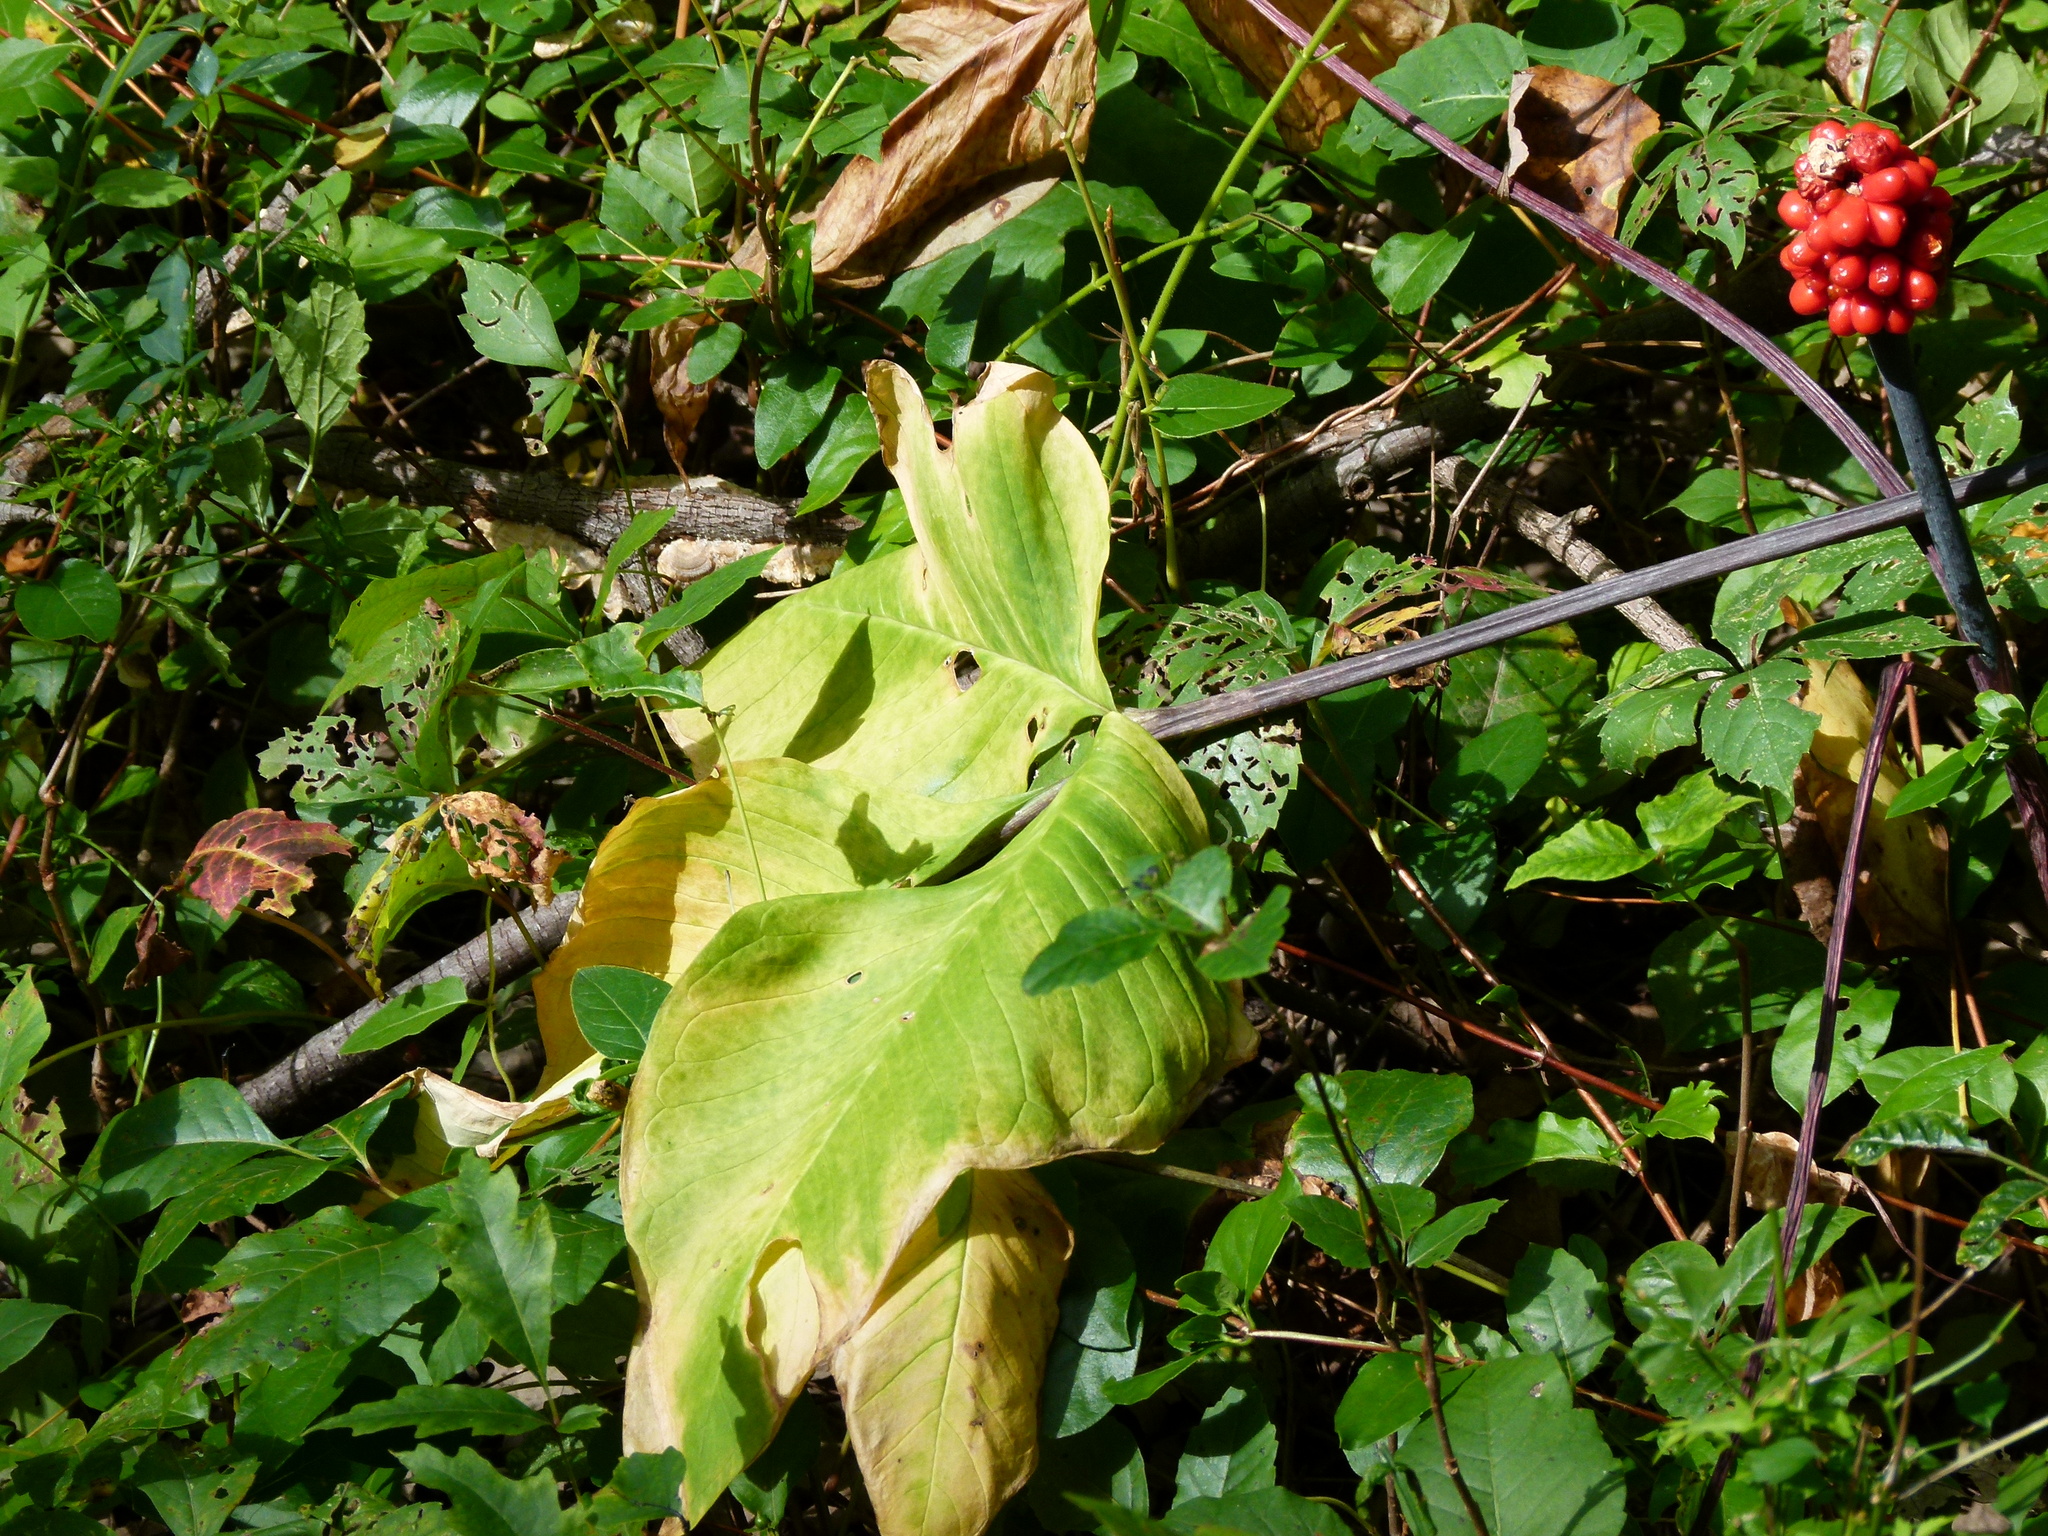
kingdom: Plantae
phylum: Tracheophyta
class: Liliopsida
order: Alismatales
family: Araceae
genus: Arisaema
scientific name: Arisaema triphyllum
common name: Jack-in-the-pulpit
